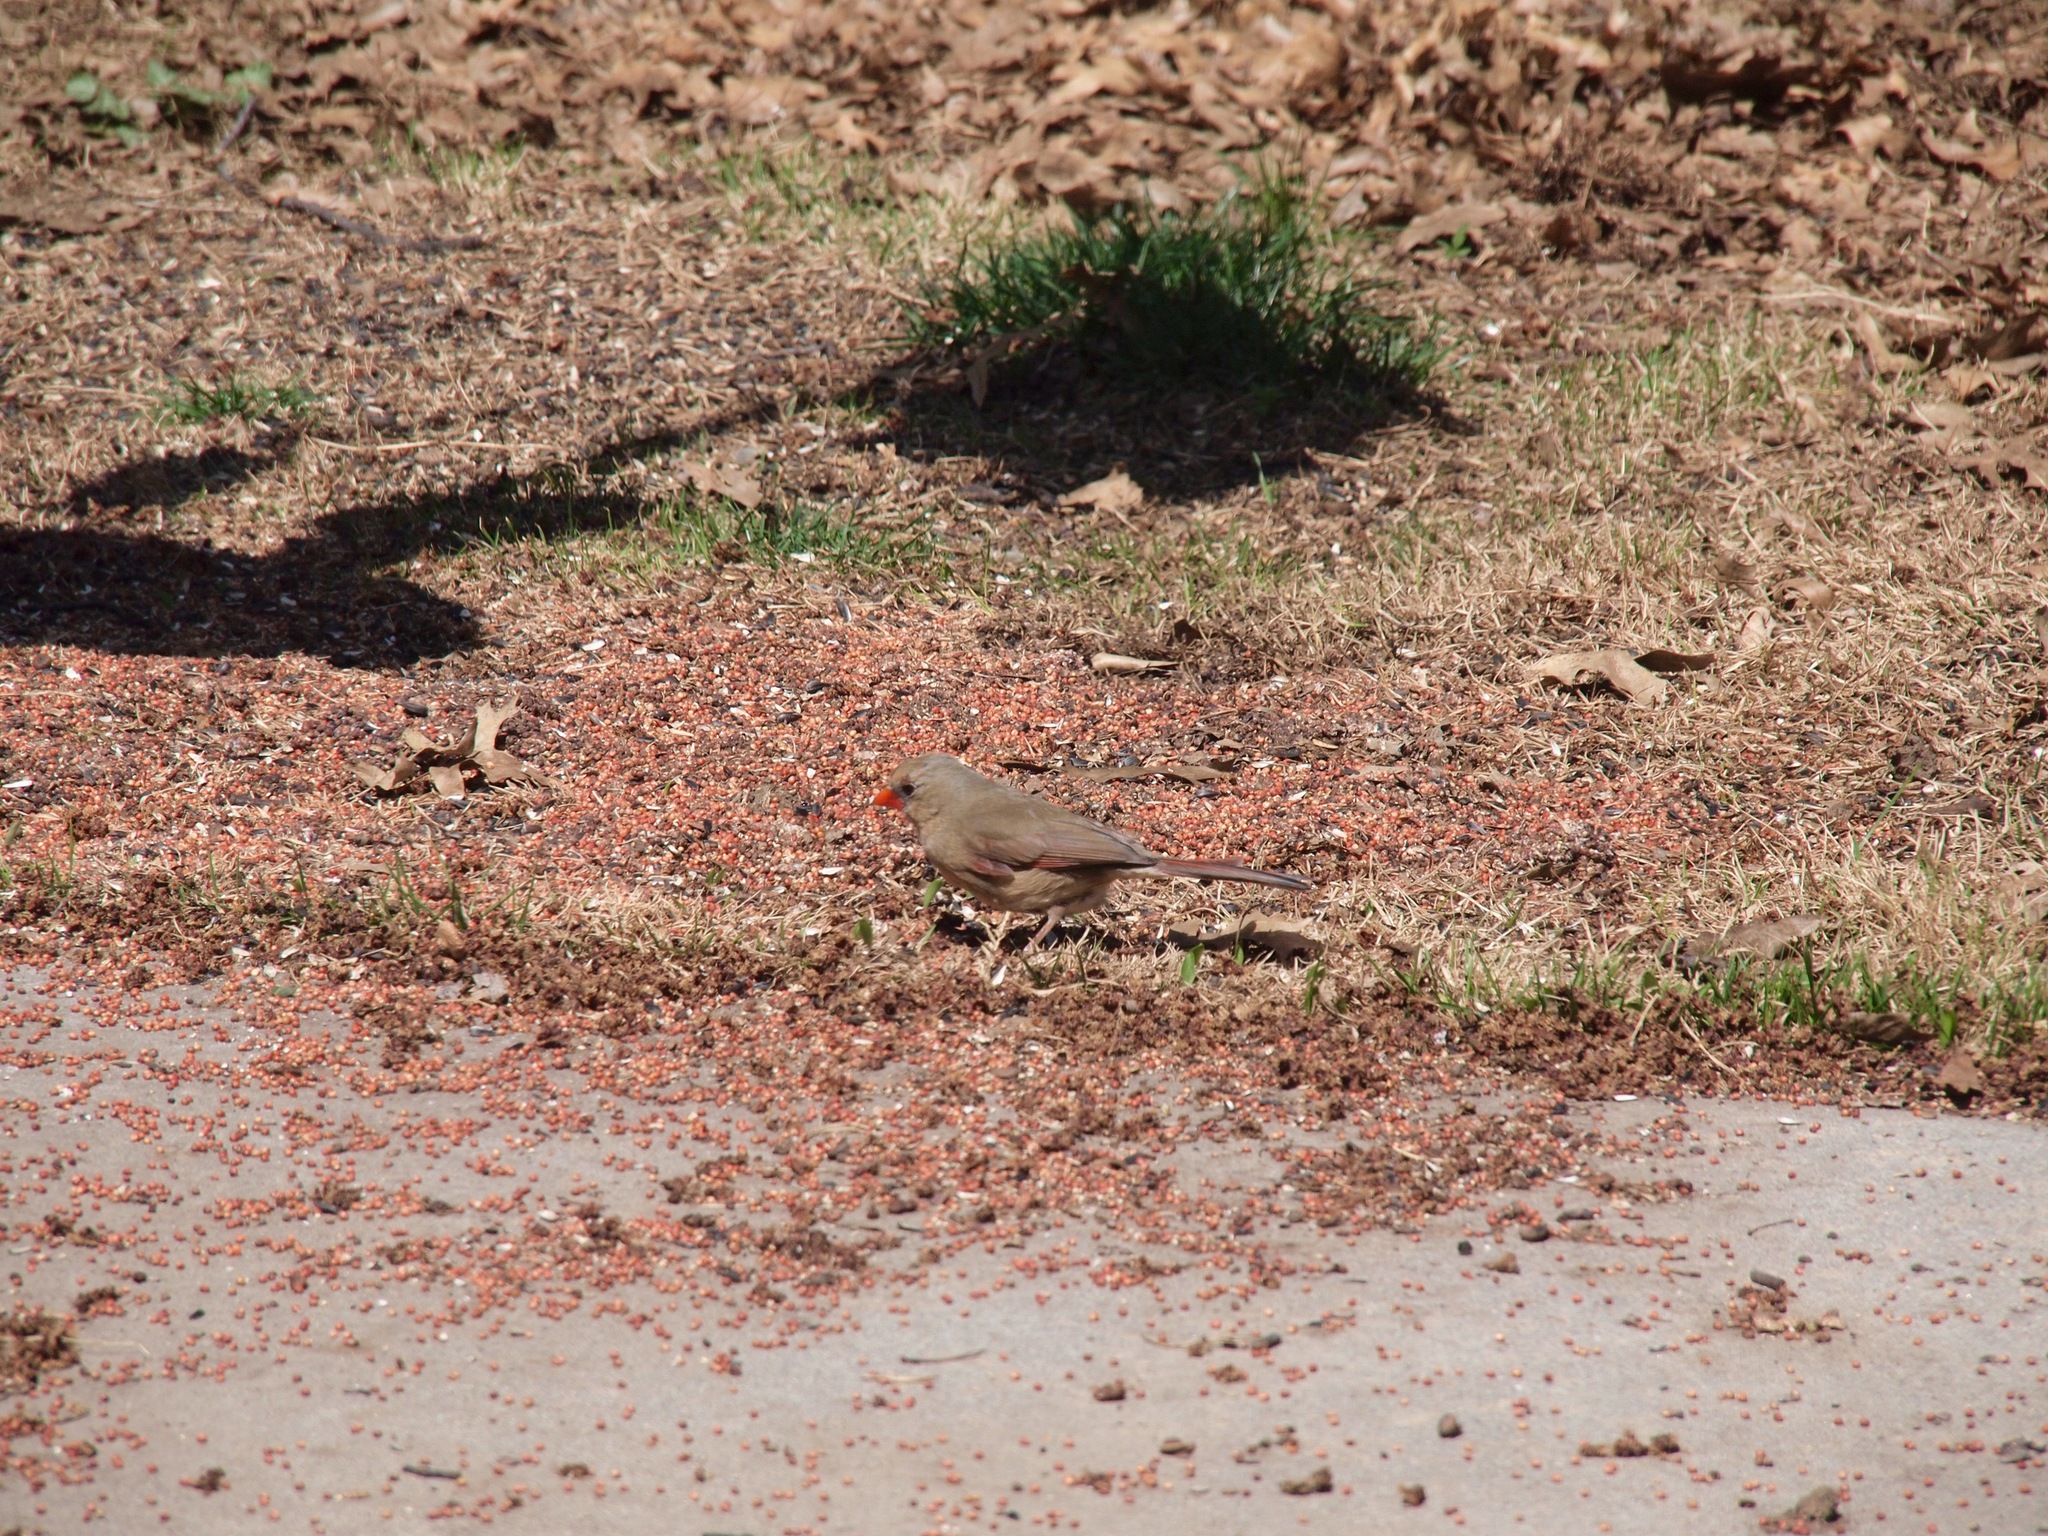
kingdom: Animalia
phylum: Chordata
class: Aves
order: Passeriformes
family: Cardinalidae
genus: Cardinalis
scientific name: Cardinalis cardinalis
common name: Northern cardinal
